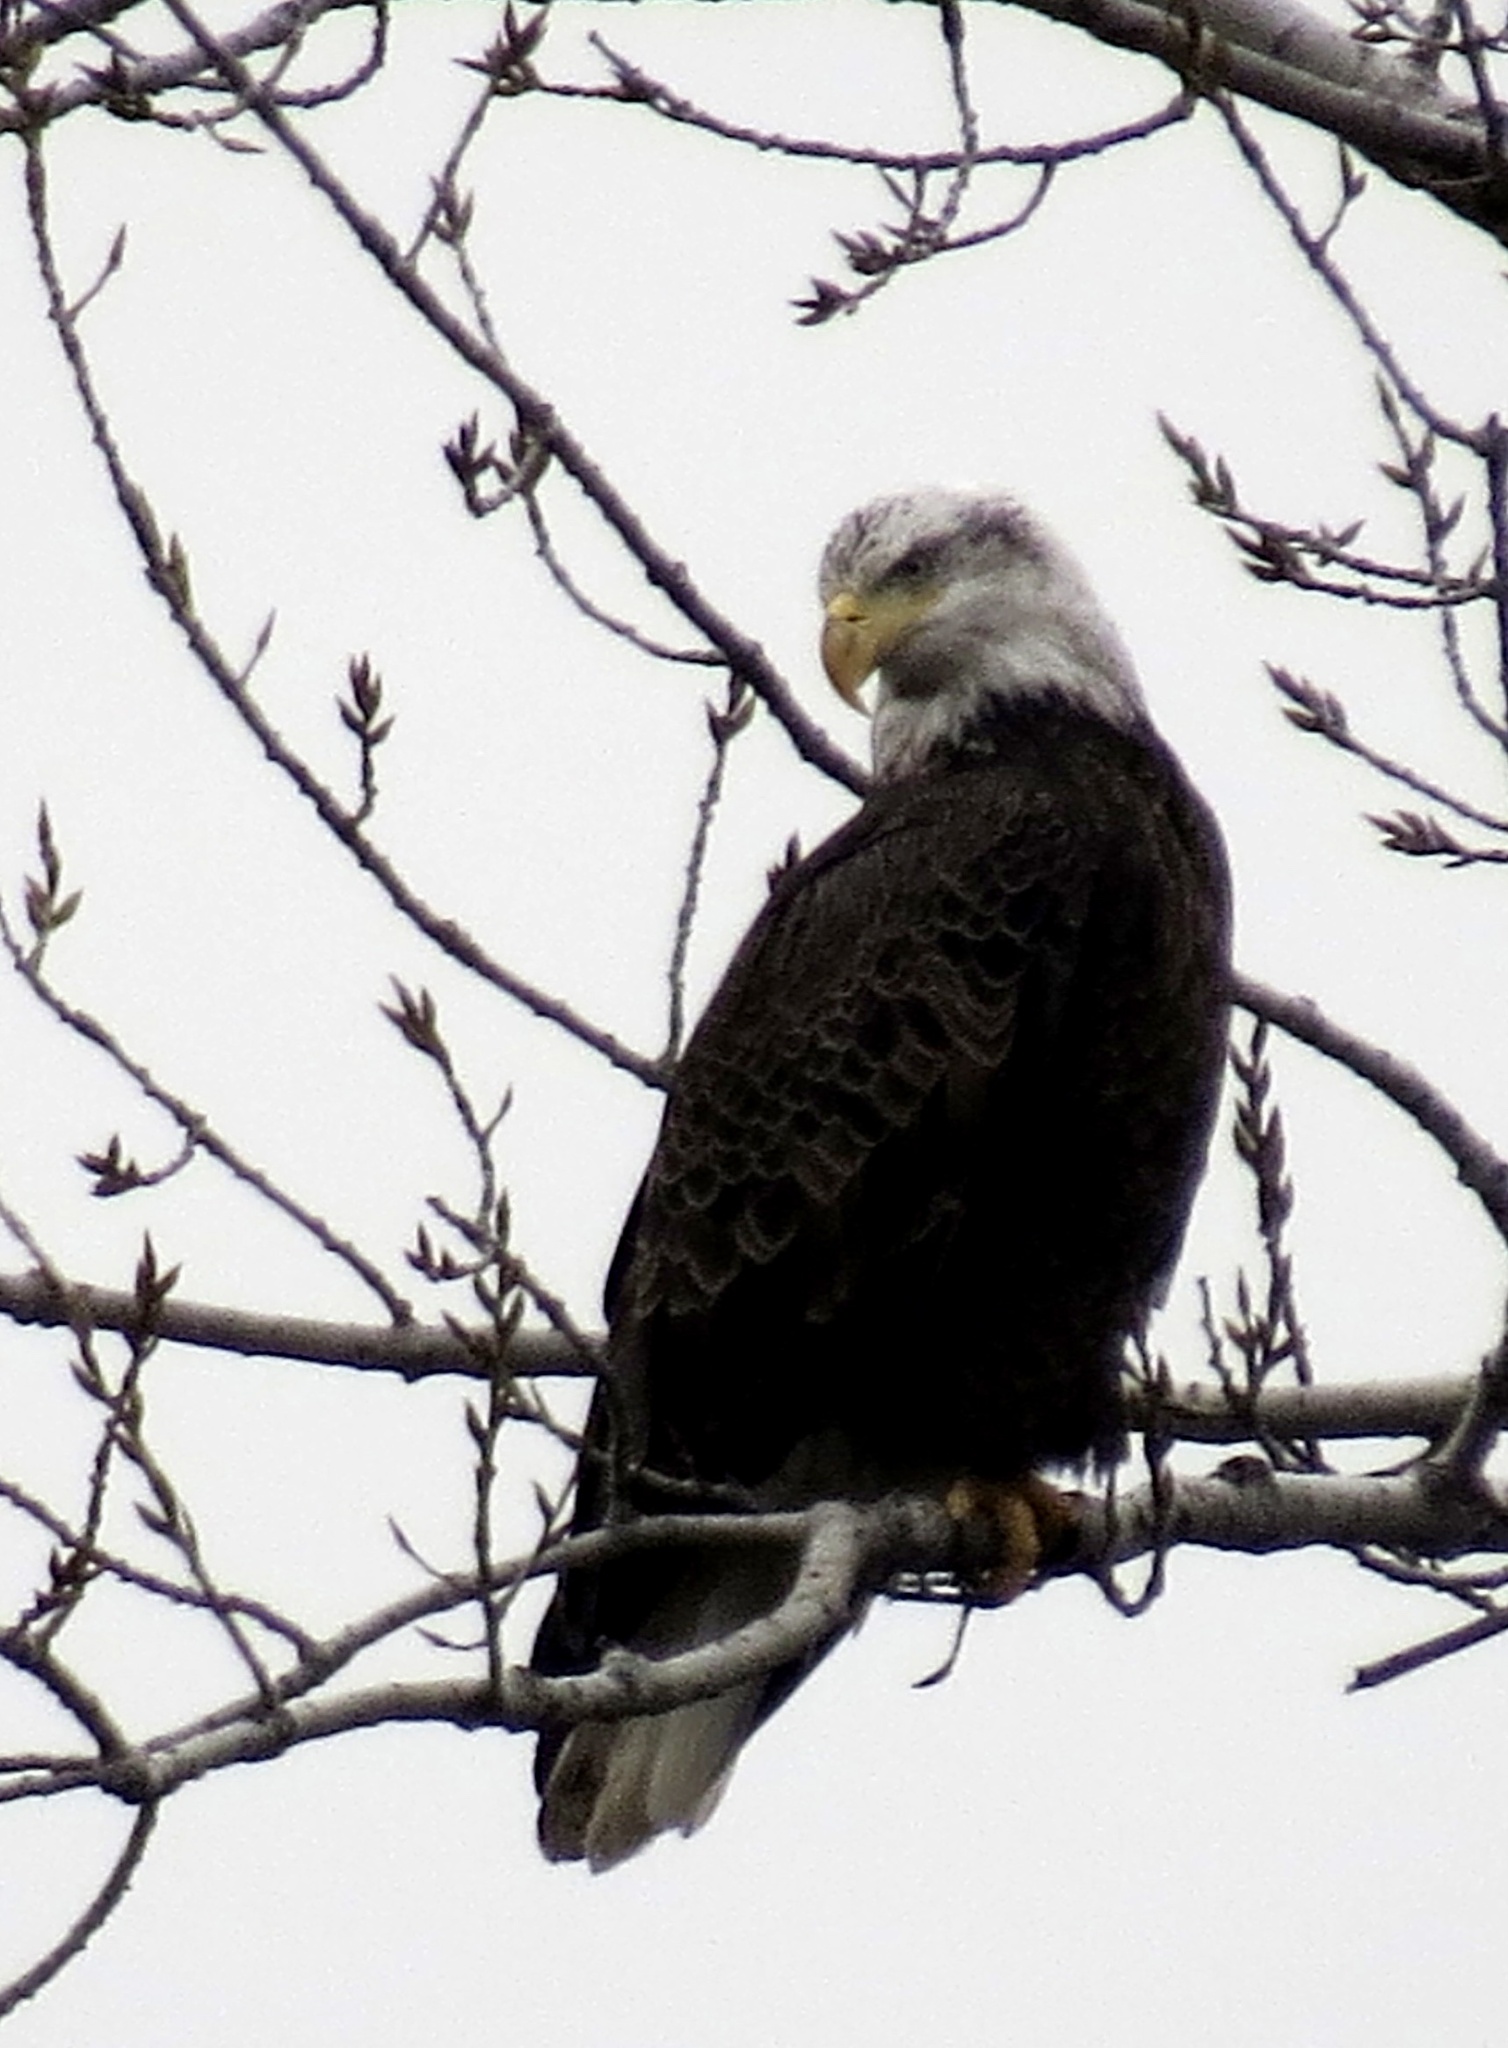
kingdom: Animalia
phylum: Chordata
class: Aves
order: Accipitriformes
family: Accipitridae
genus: Haliaeetus
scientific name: Haliaeetus leucocephalus
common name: Bald eagle
